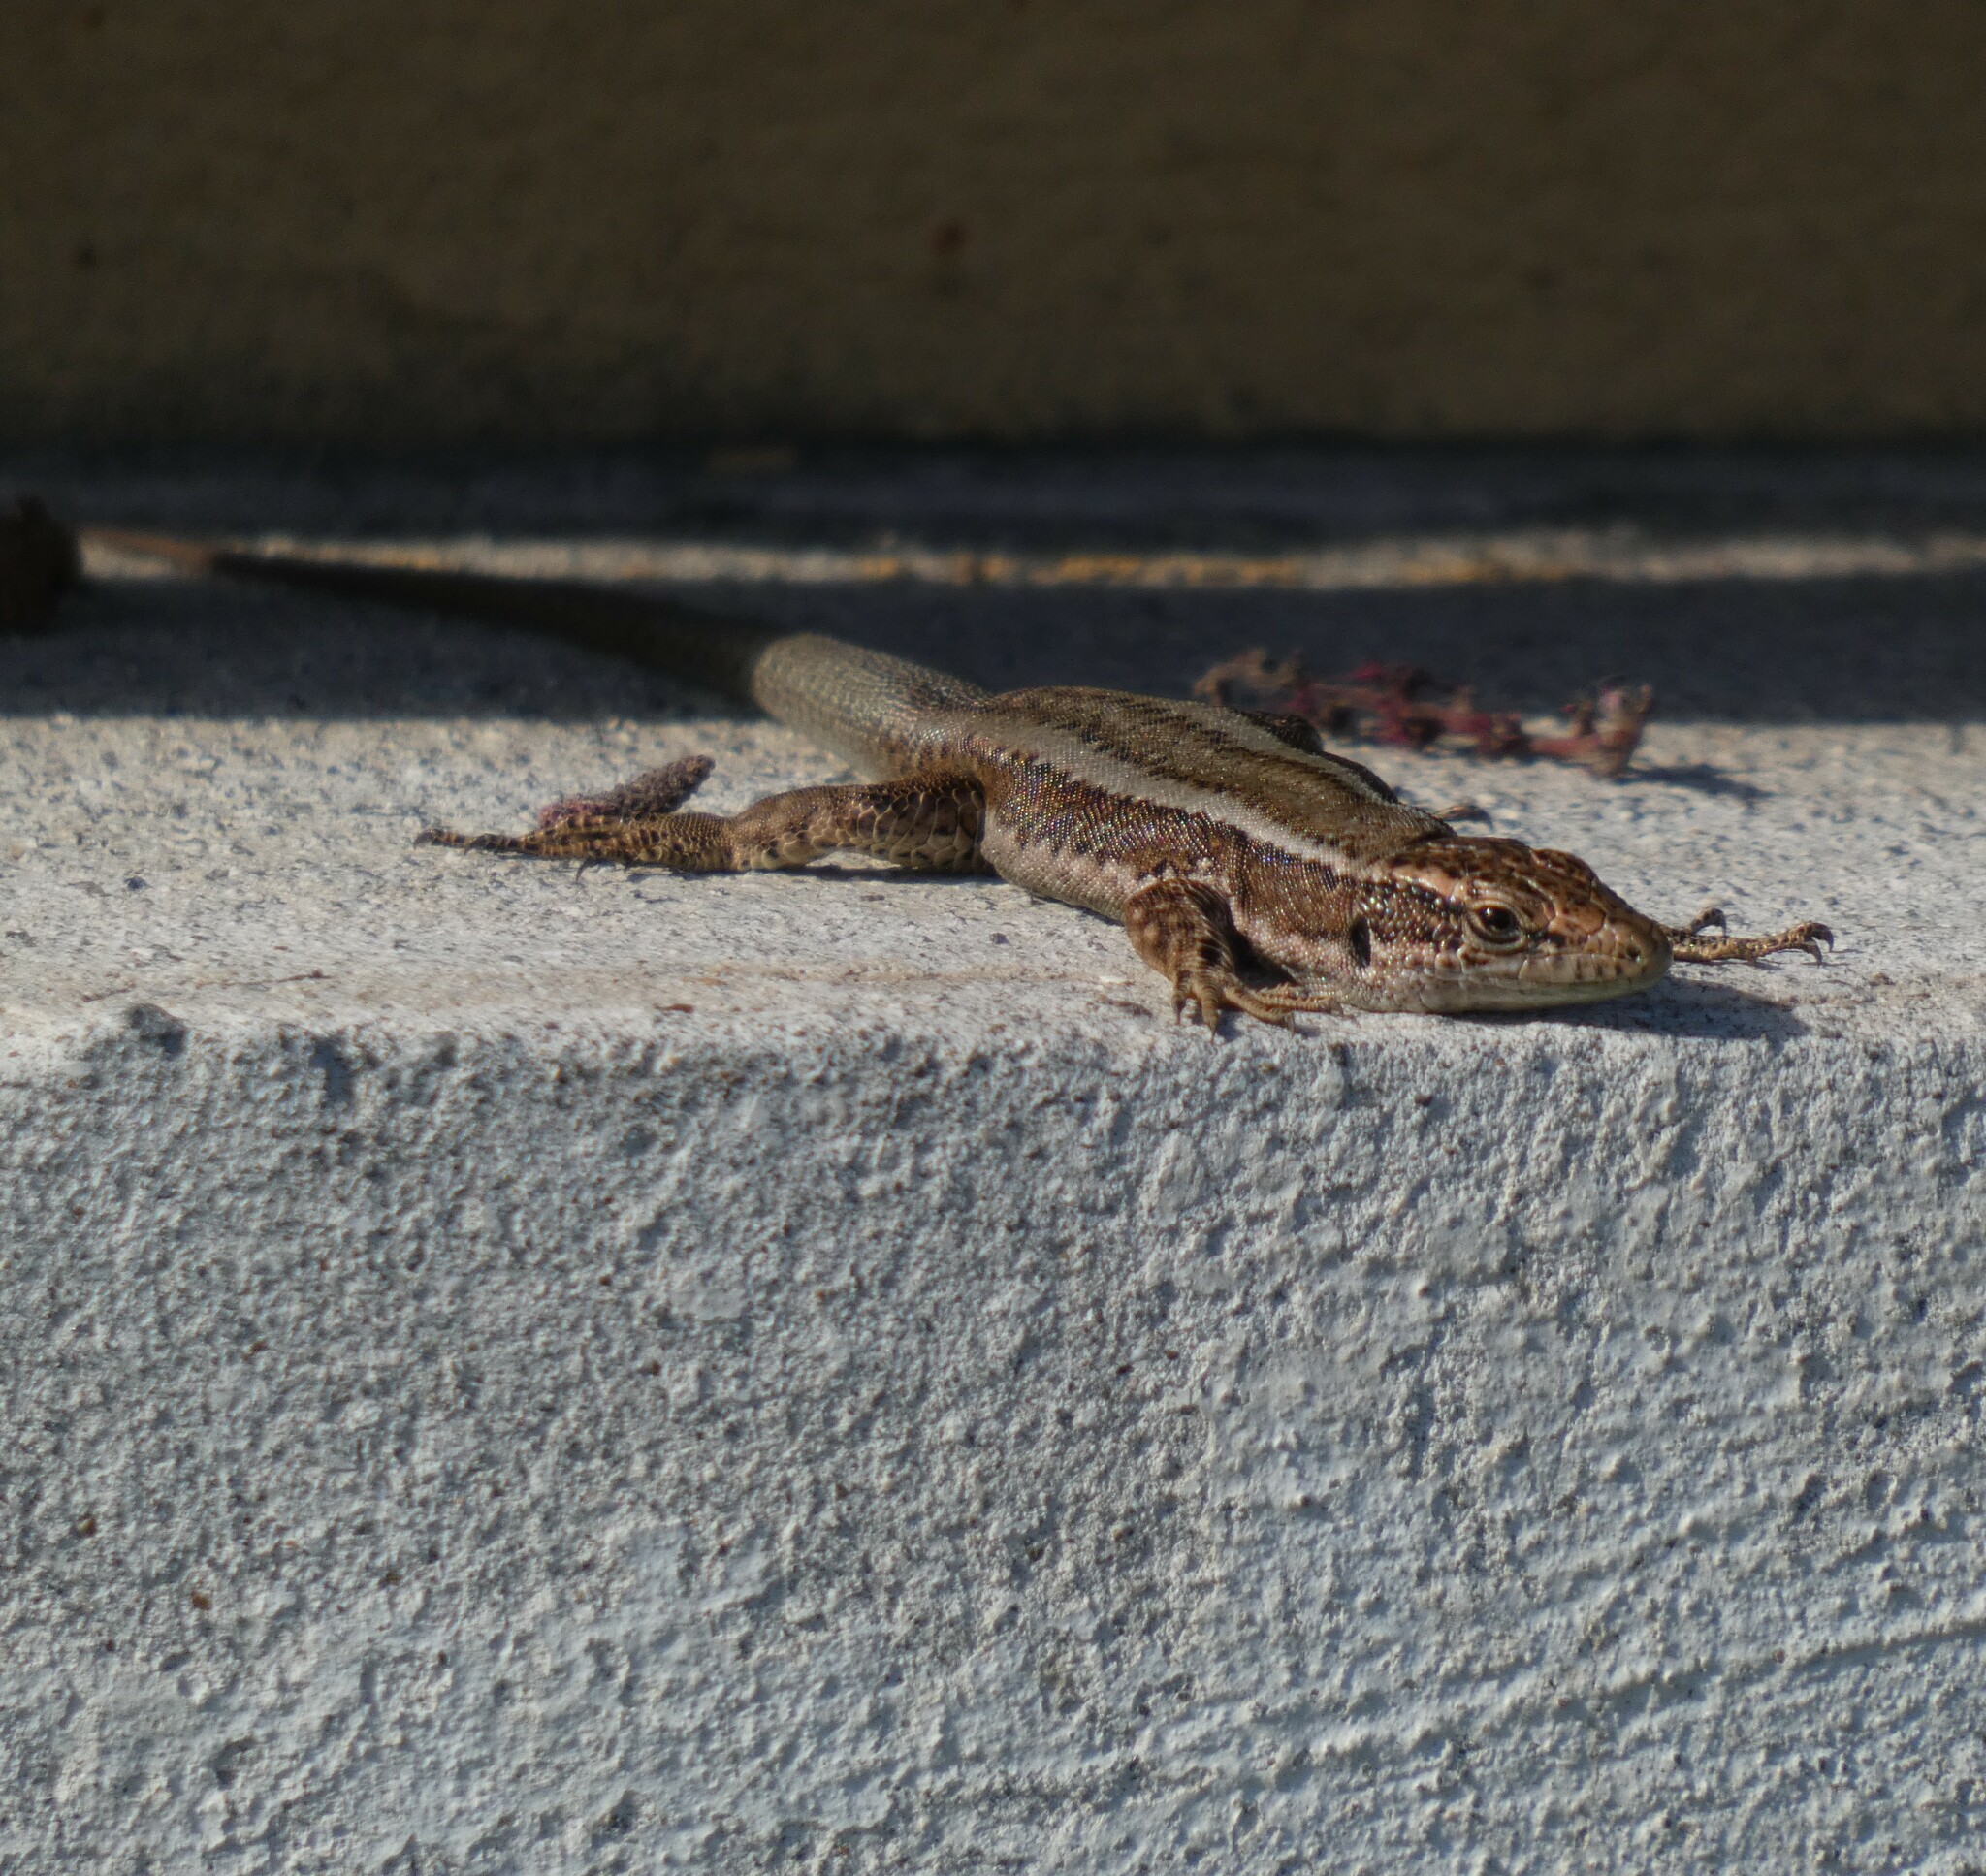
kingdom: Animalia
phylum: Chordata
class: Squamata
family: Lacertidae
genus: Teira
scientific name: Teira dugesii
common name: Madeira lizard
